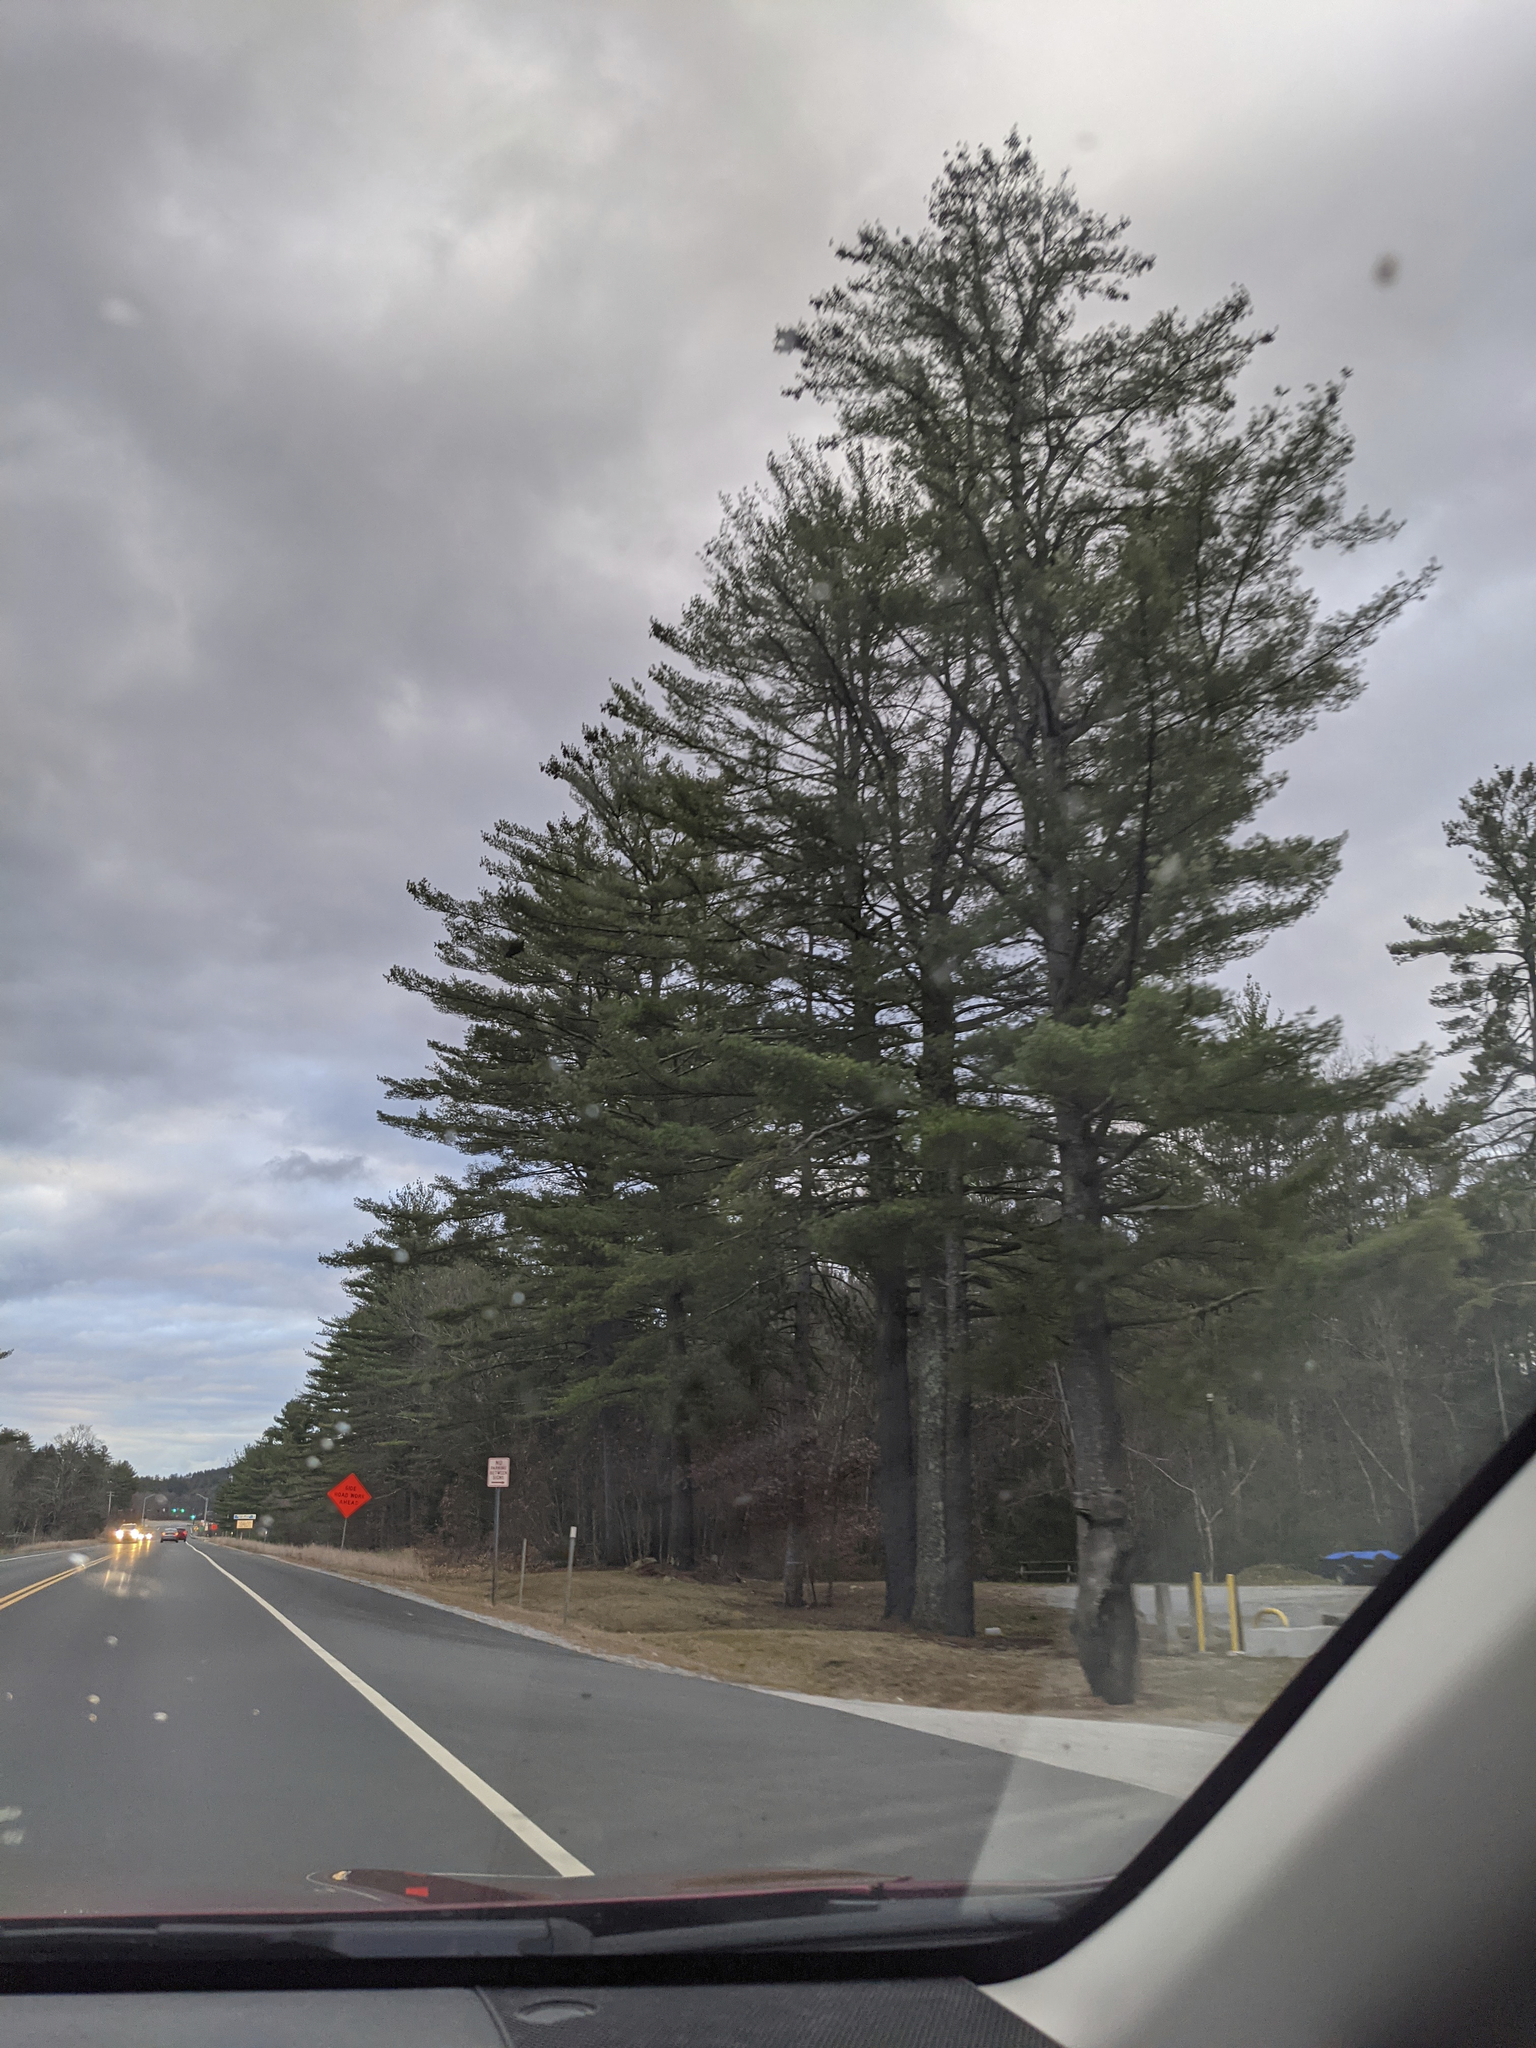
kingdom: Plantae
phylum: Tracheophyta
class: Pinopsida
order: Pinales
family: Pinaceae
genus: Pinus
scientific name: Pinus strobus
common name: Weymouth pine
